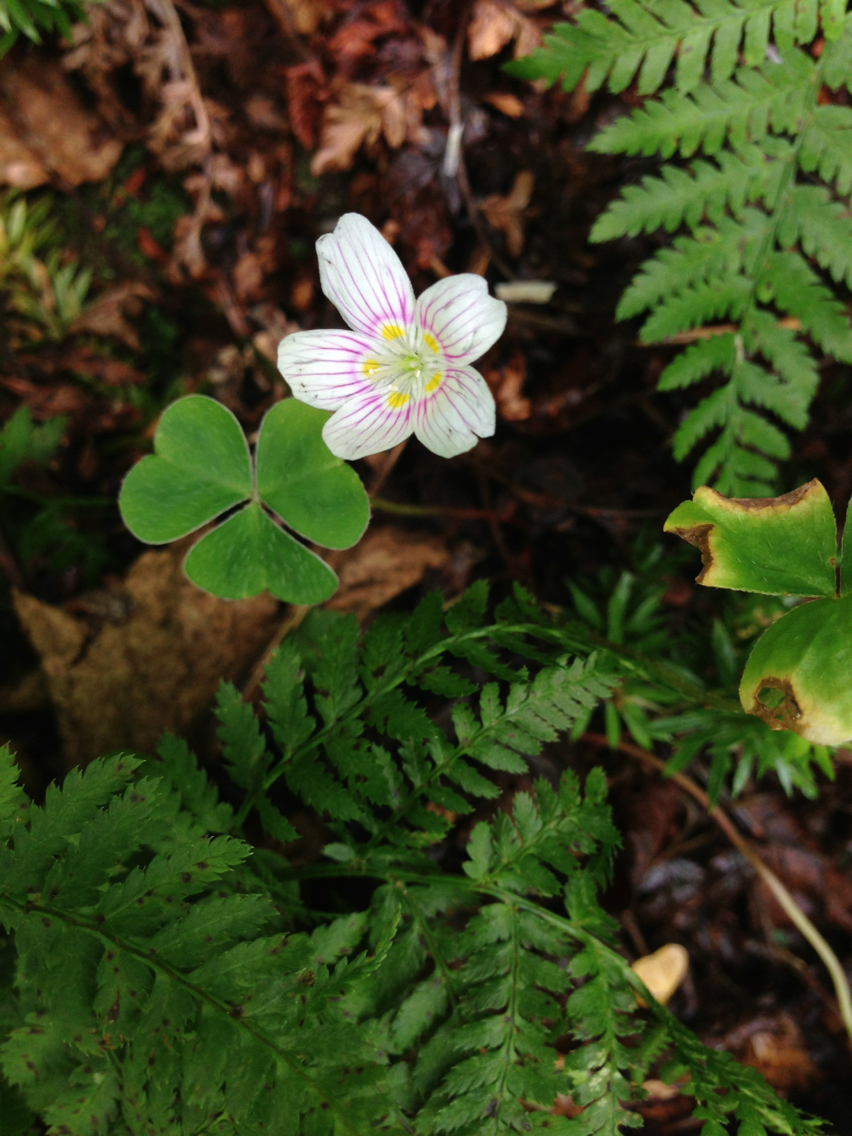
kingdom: Plantae
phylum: Tracheophyta
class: Magnoliopsida
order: Oxalidales
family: Oxalidaceae
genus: Oxalis
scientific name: Oxalis montana
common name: American wood-sorrel
